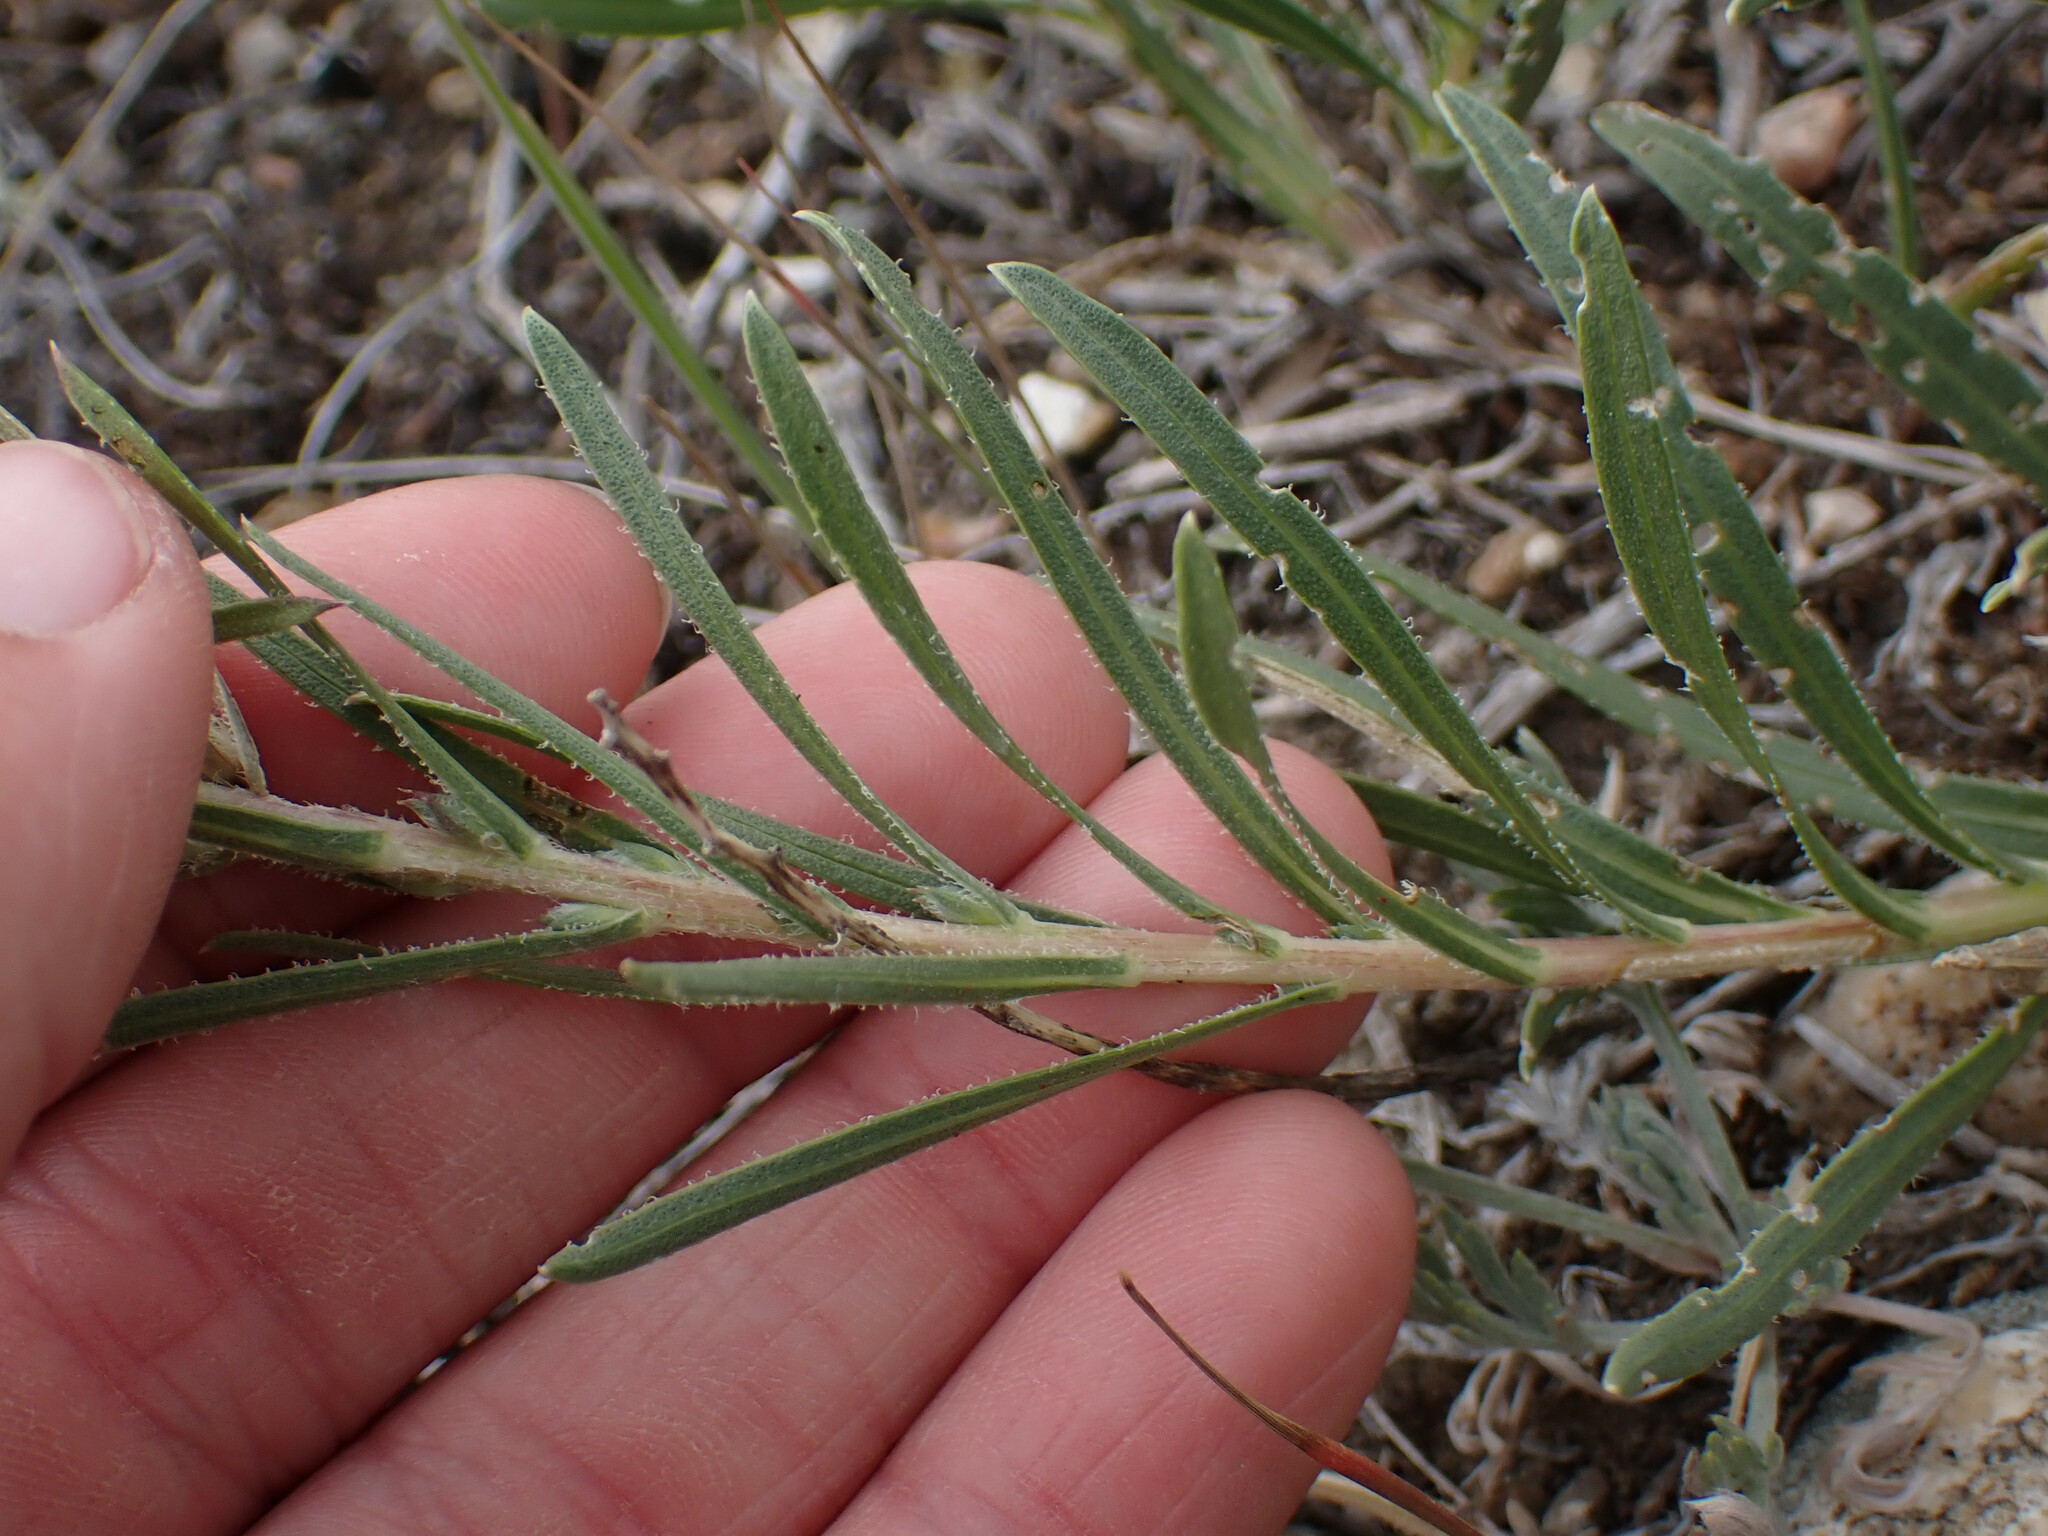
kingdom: Plantae
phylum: Tracheophyta
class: Magnoliopsida
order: Asterales
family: Asteraceae
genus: Liatris
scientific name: Liatris punctata
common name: Dotted gayfeather
